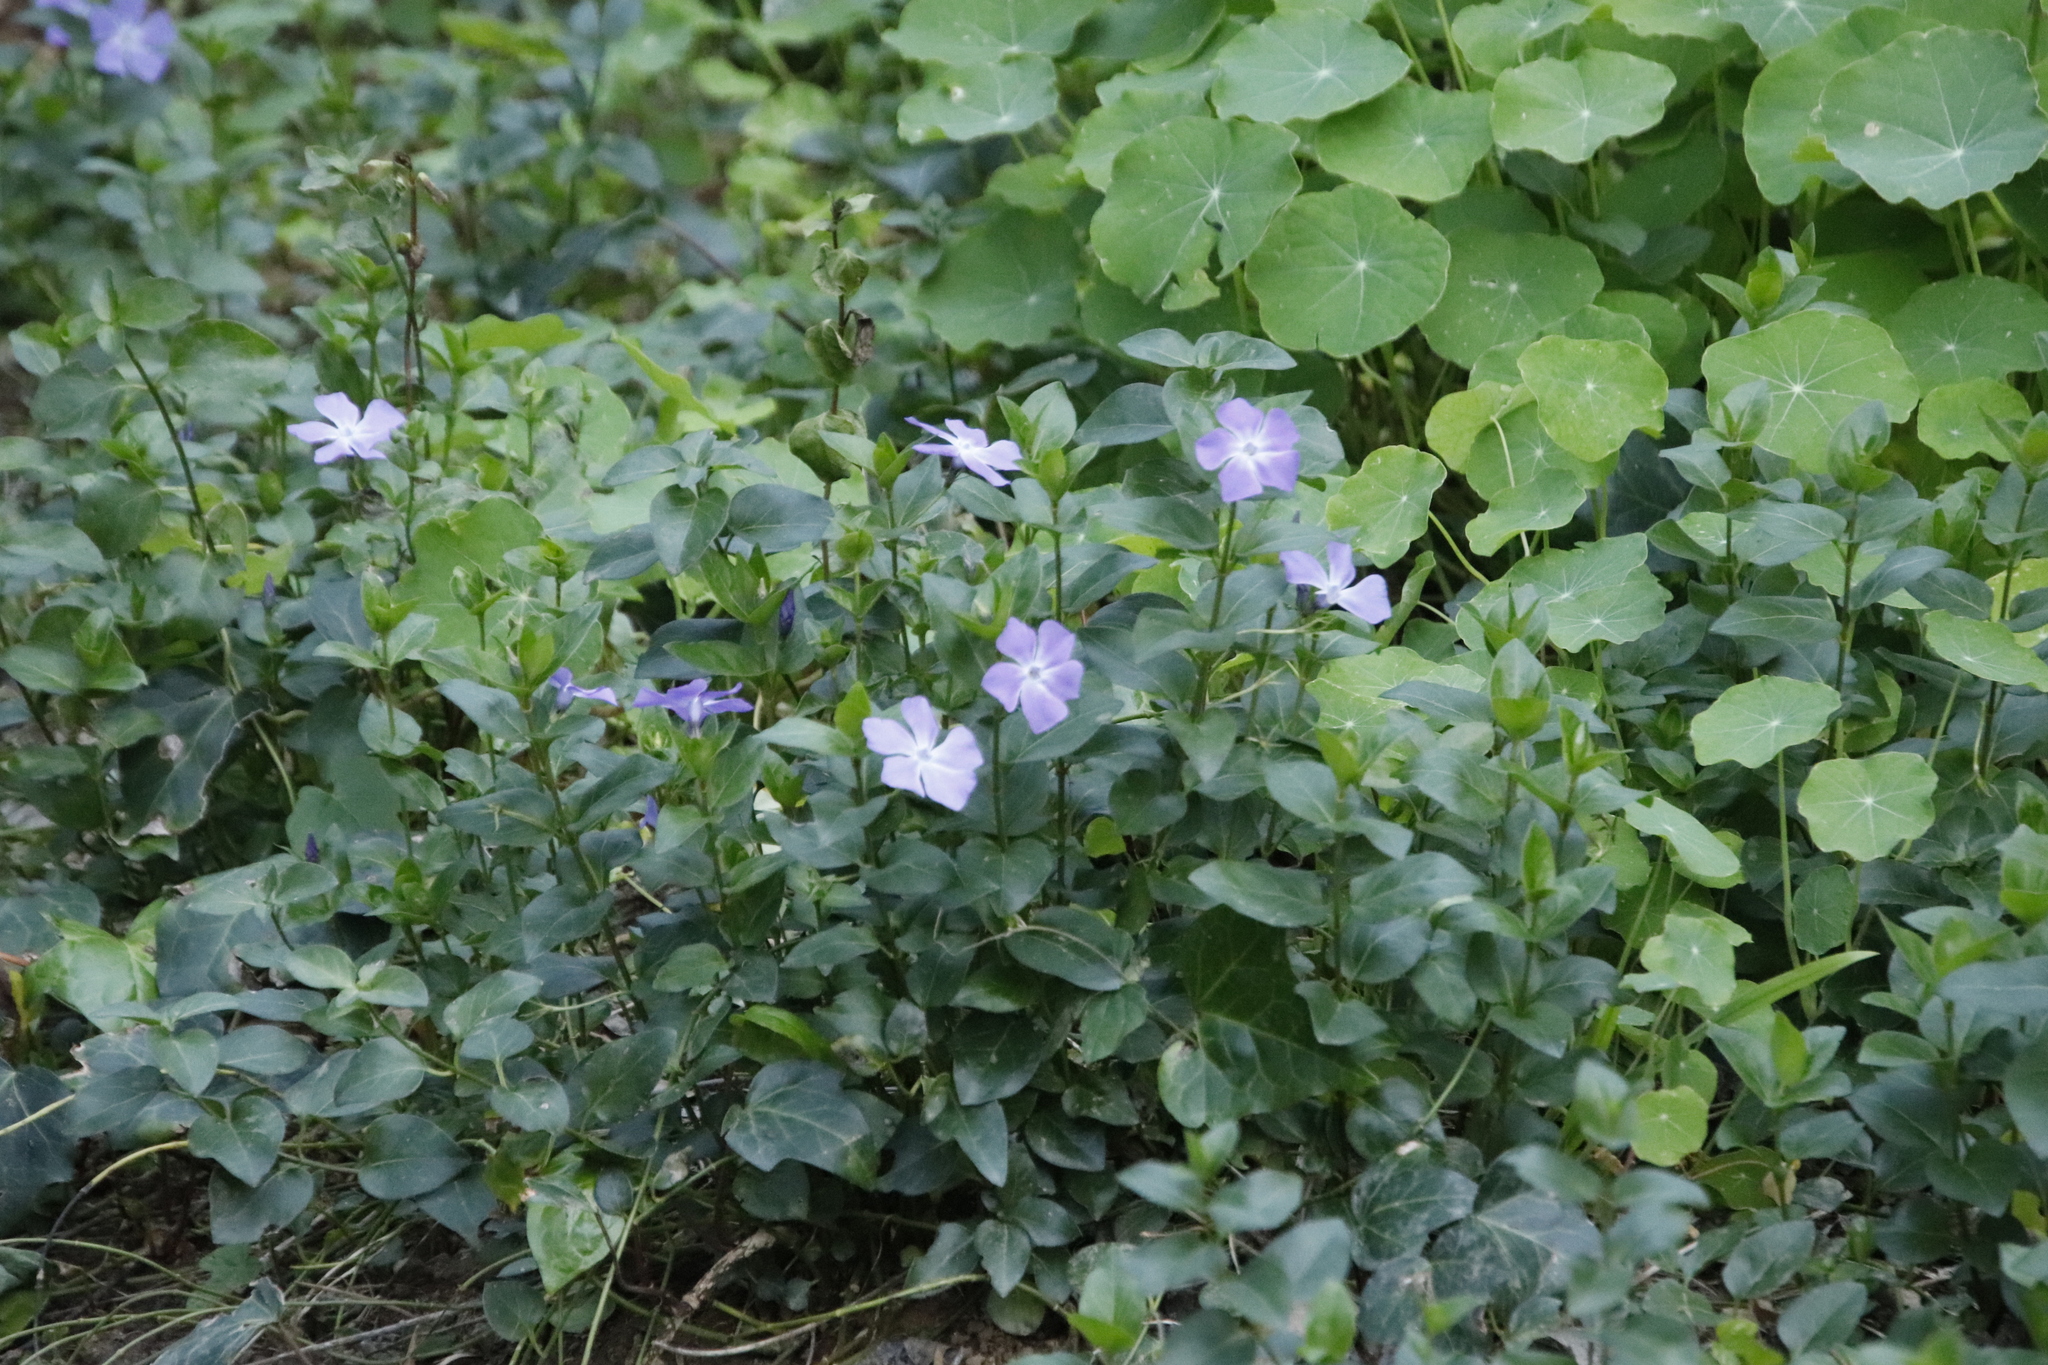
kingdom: Plantae
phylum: Tracheophyta
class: Magnoliopsida
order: Gentianales
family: Apocynaceae
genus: Vinca
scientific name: Vinca major
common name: Greater periwinkle
